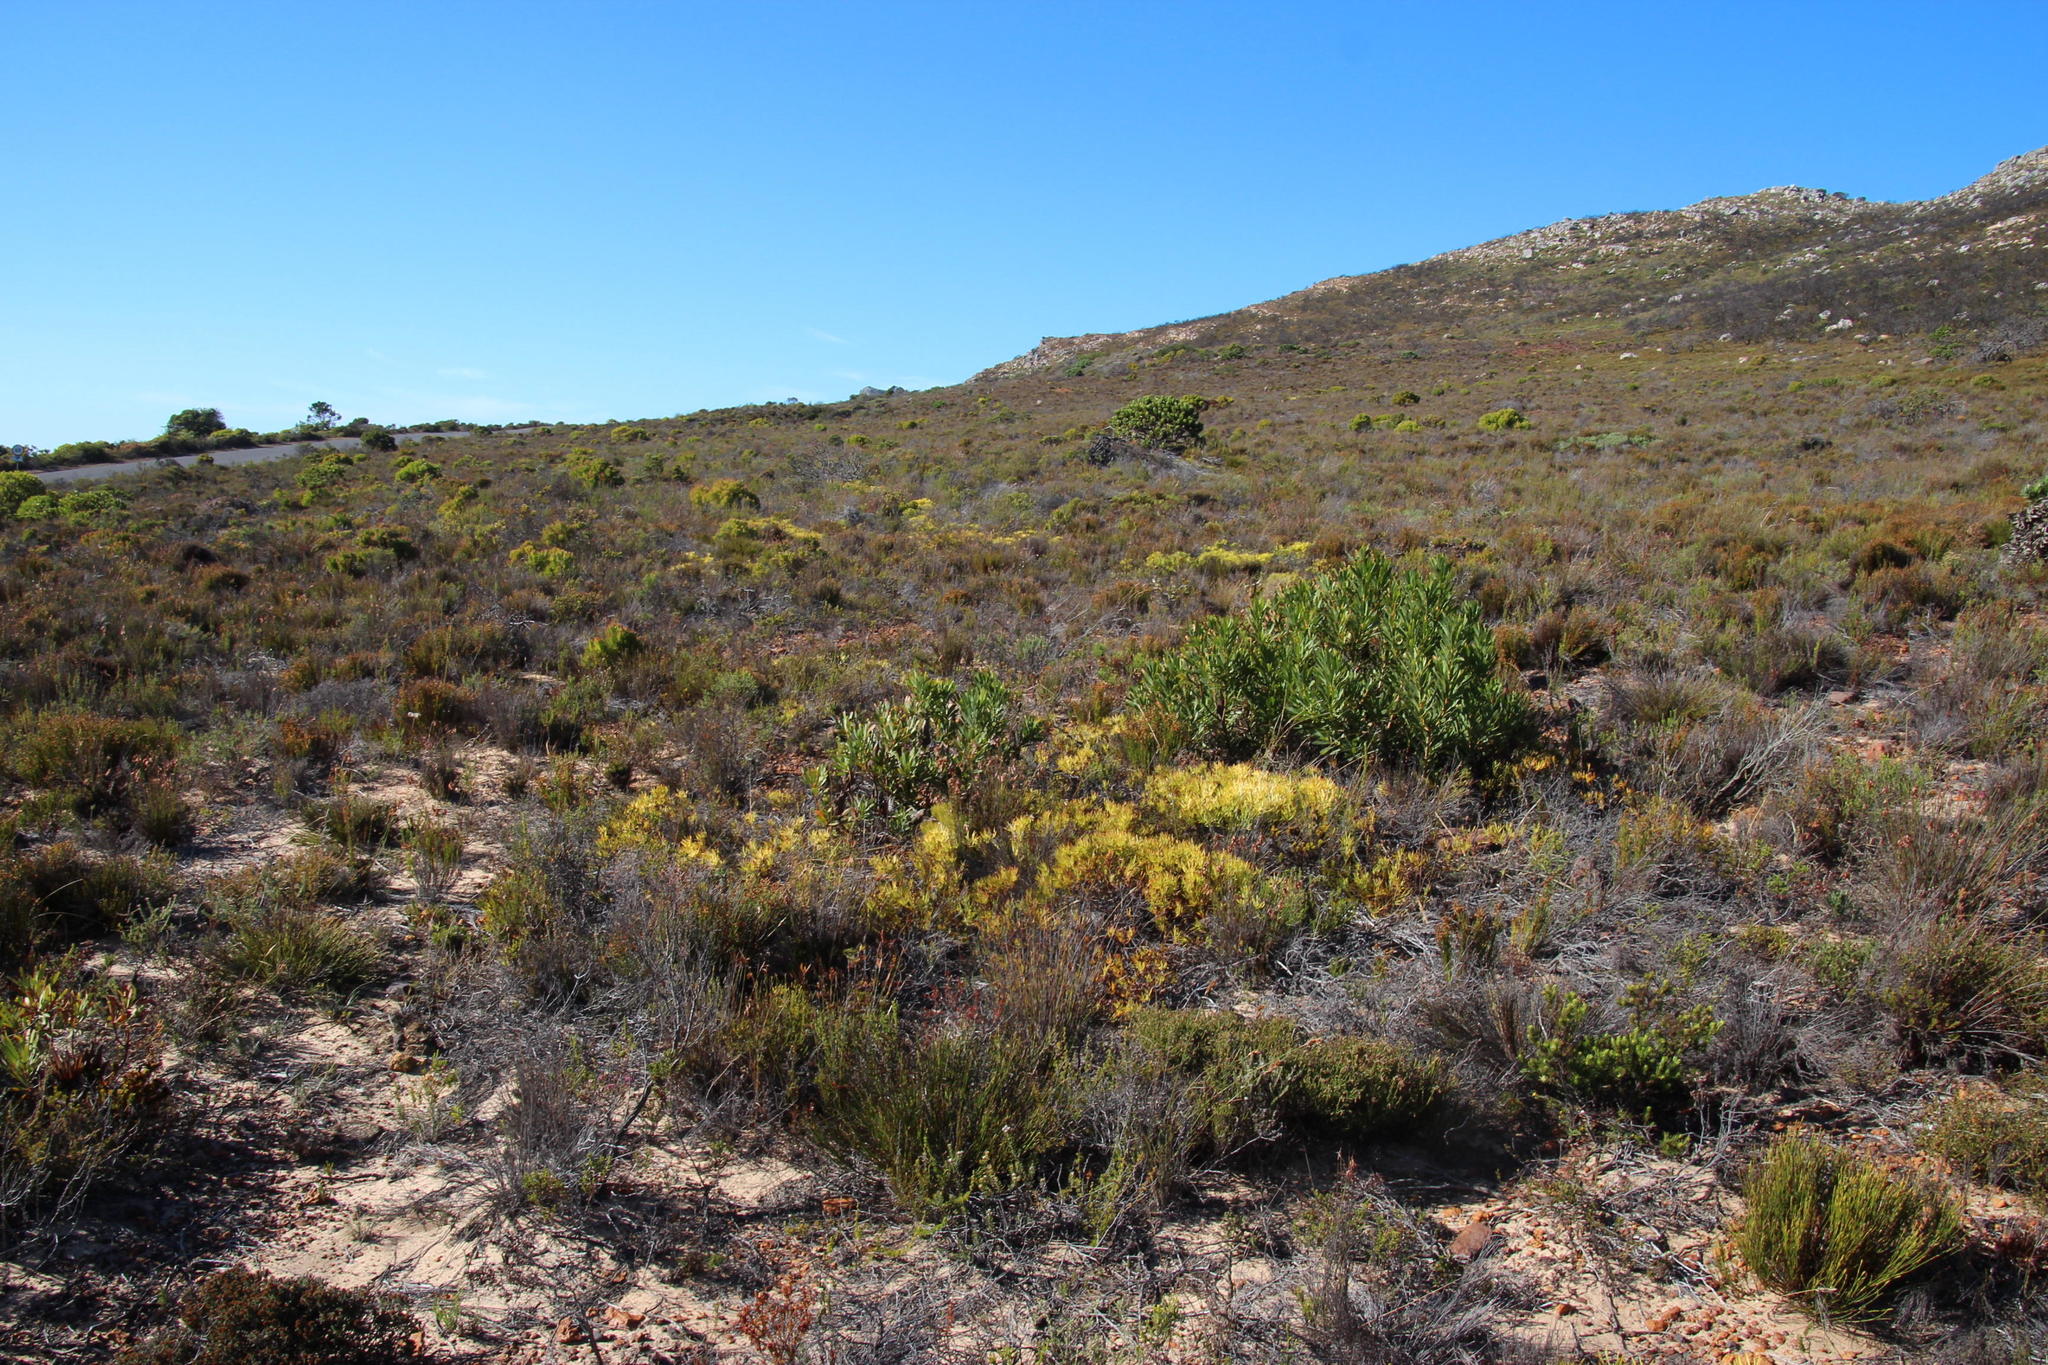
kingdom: Plantae
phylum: Tracheophyta
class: Magnoliopsida
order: Proteales
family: Proteaceae
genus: Leucadendron
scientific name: Leucadendron salignum
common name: Common sunshine conebush
